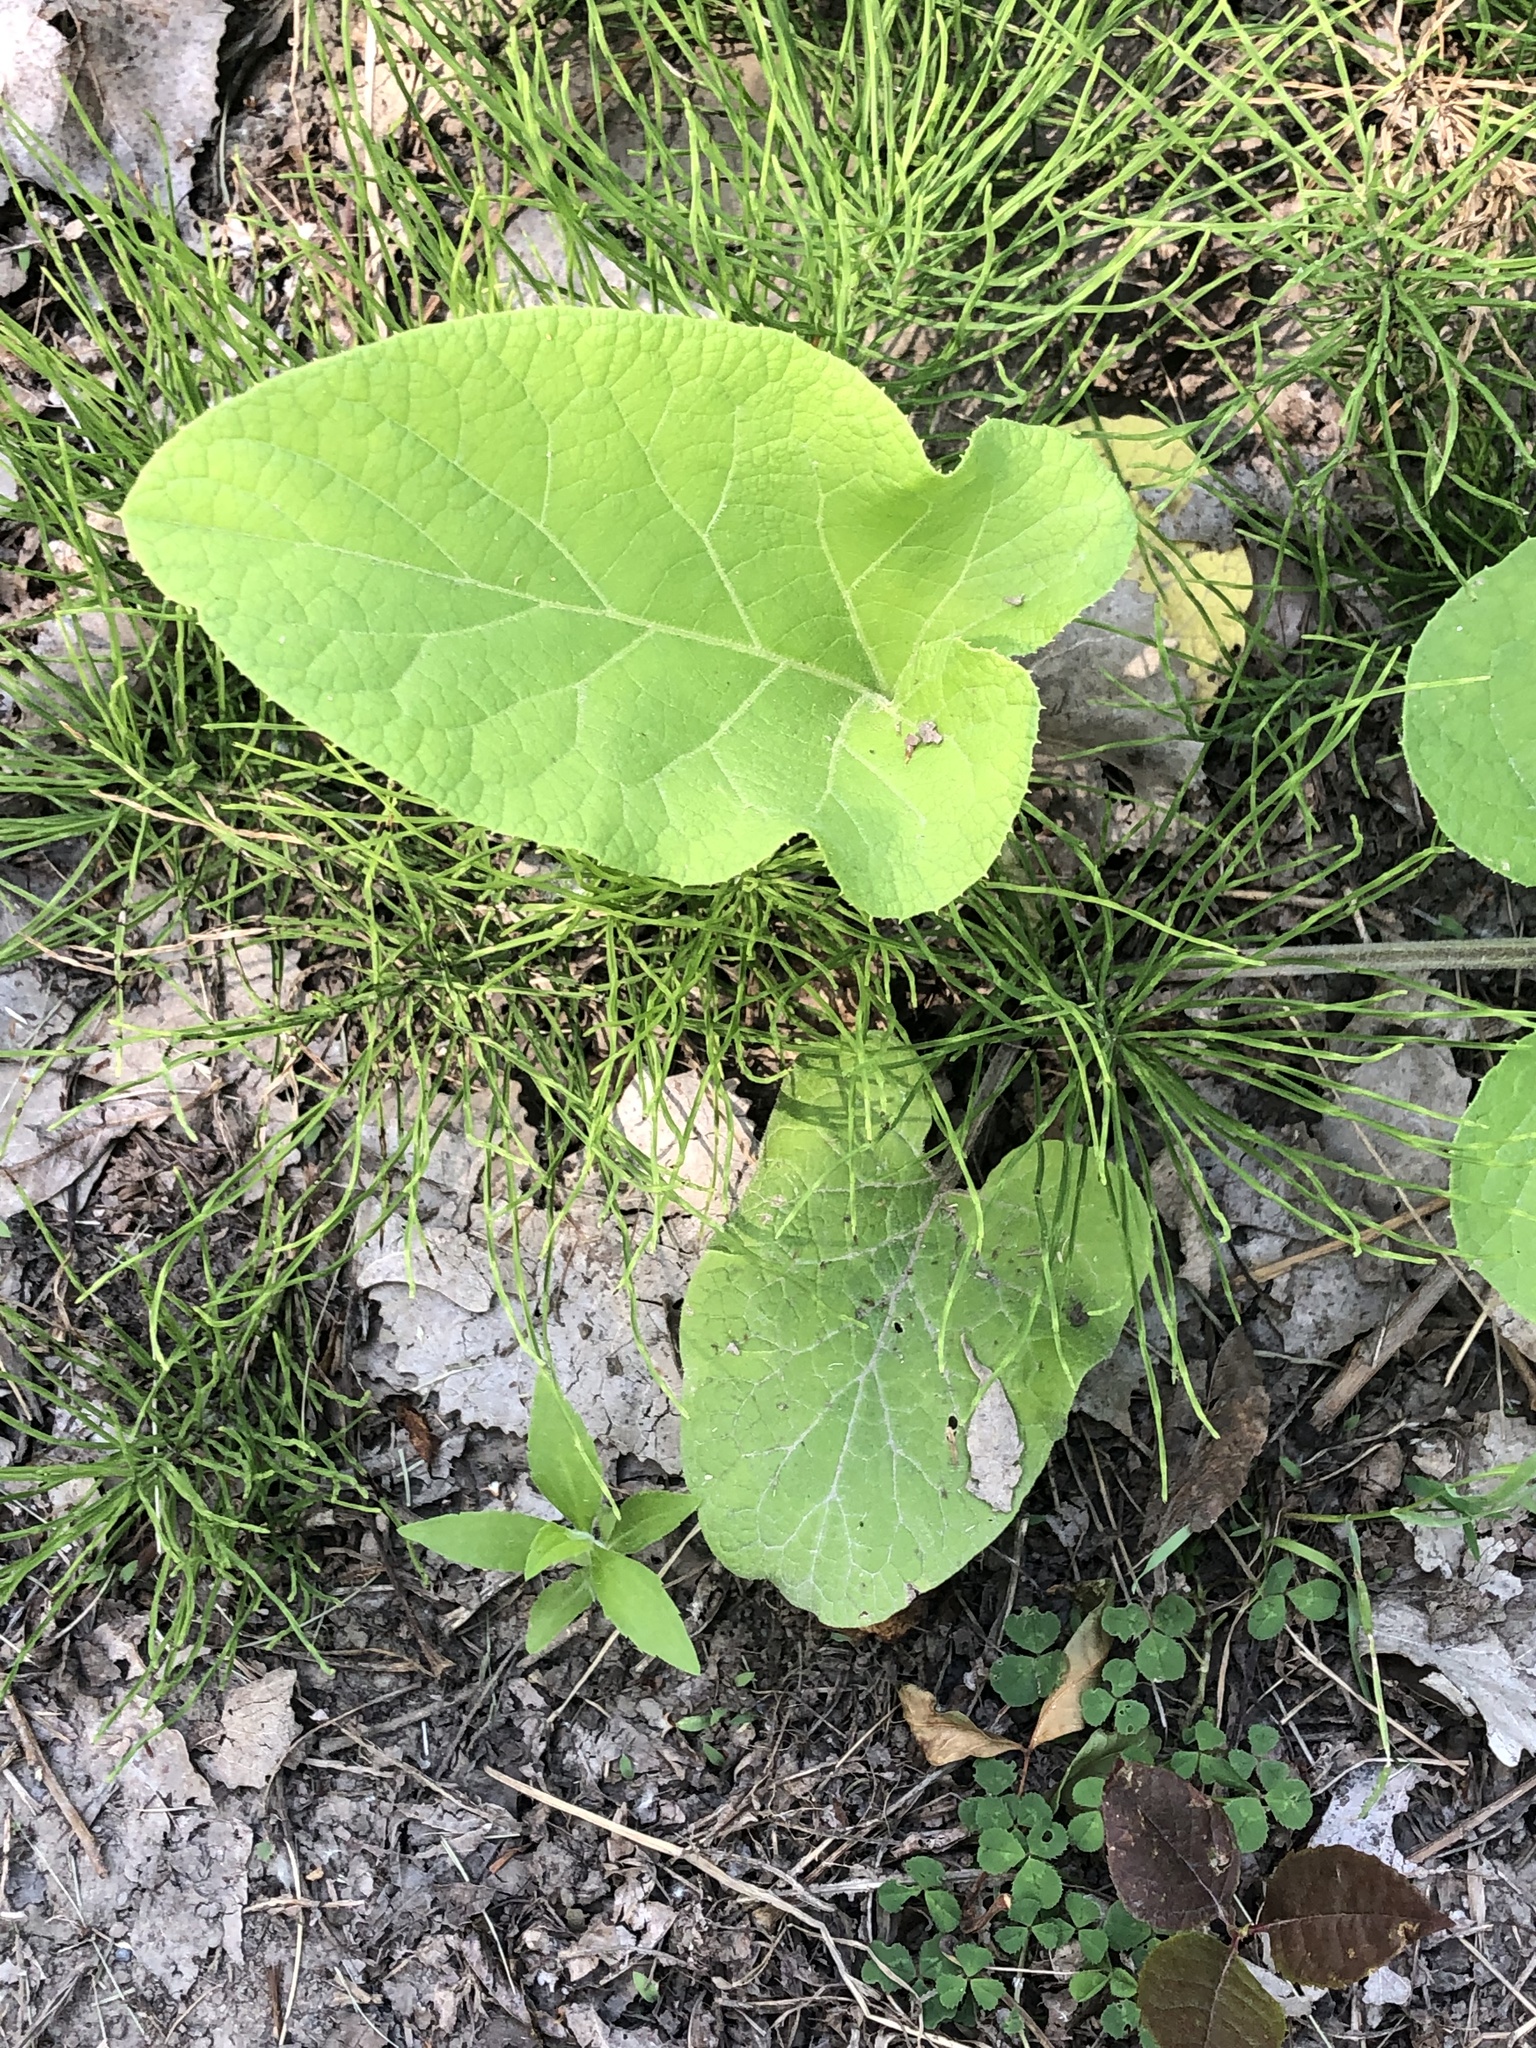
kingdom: Plantae
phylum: Tracheophyta
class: Magnoliopsida
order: Asterales
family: Asteraceae
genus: Arctium
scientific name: Arctium
